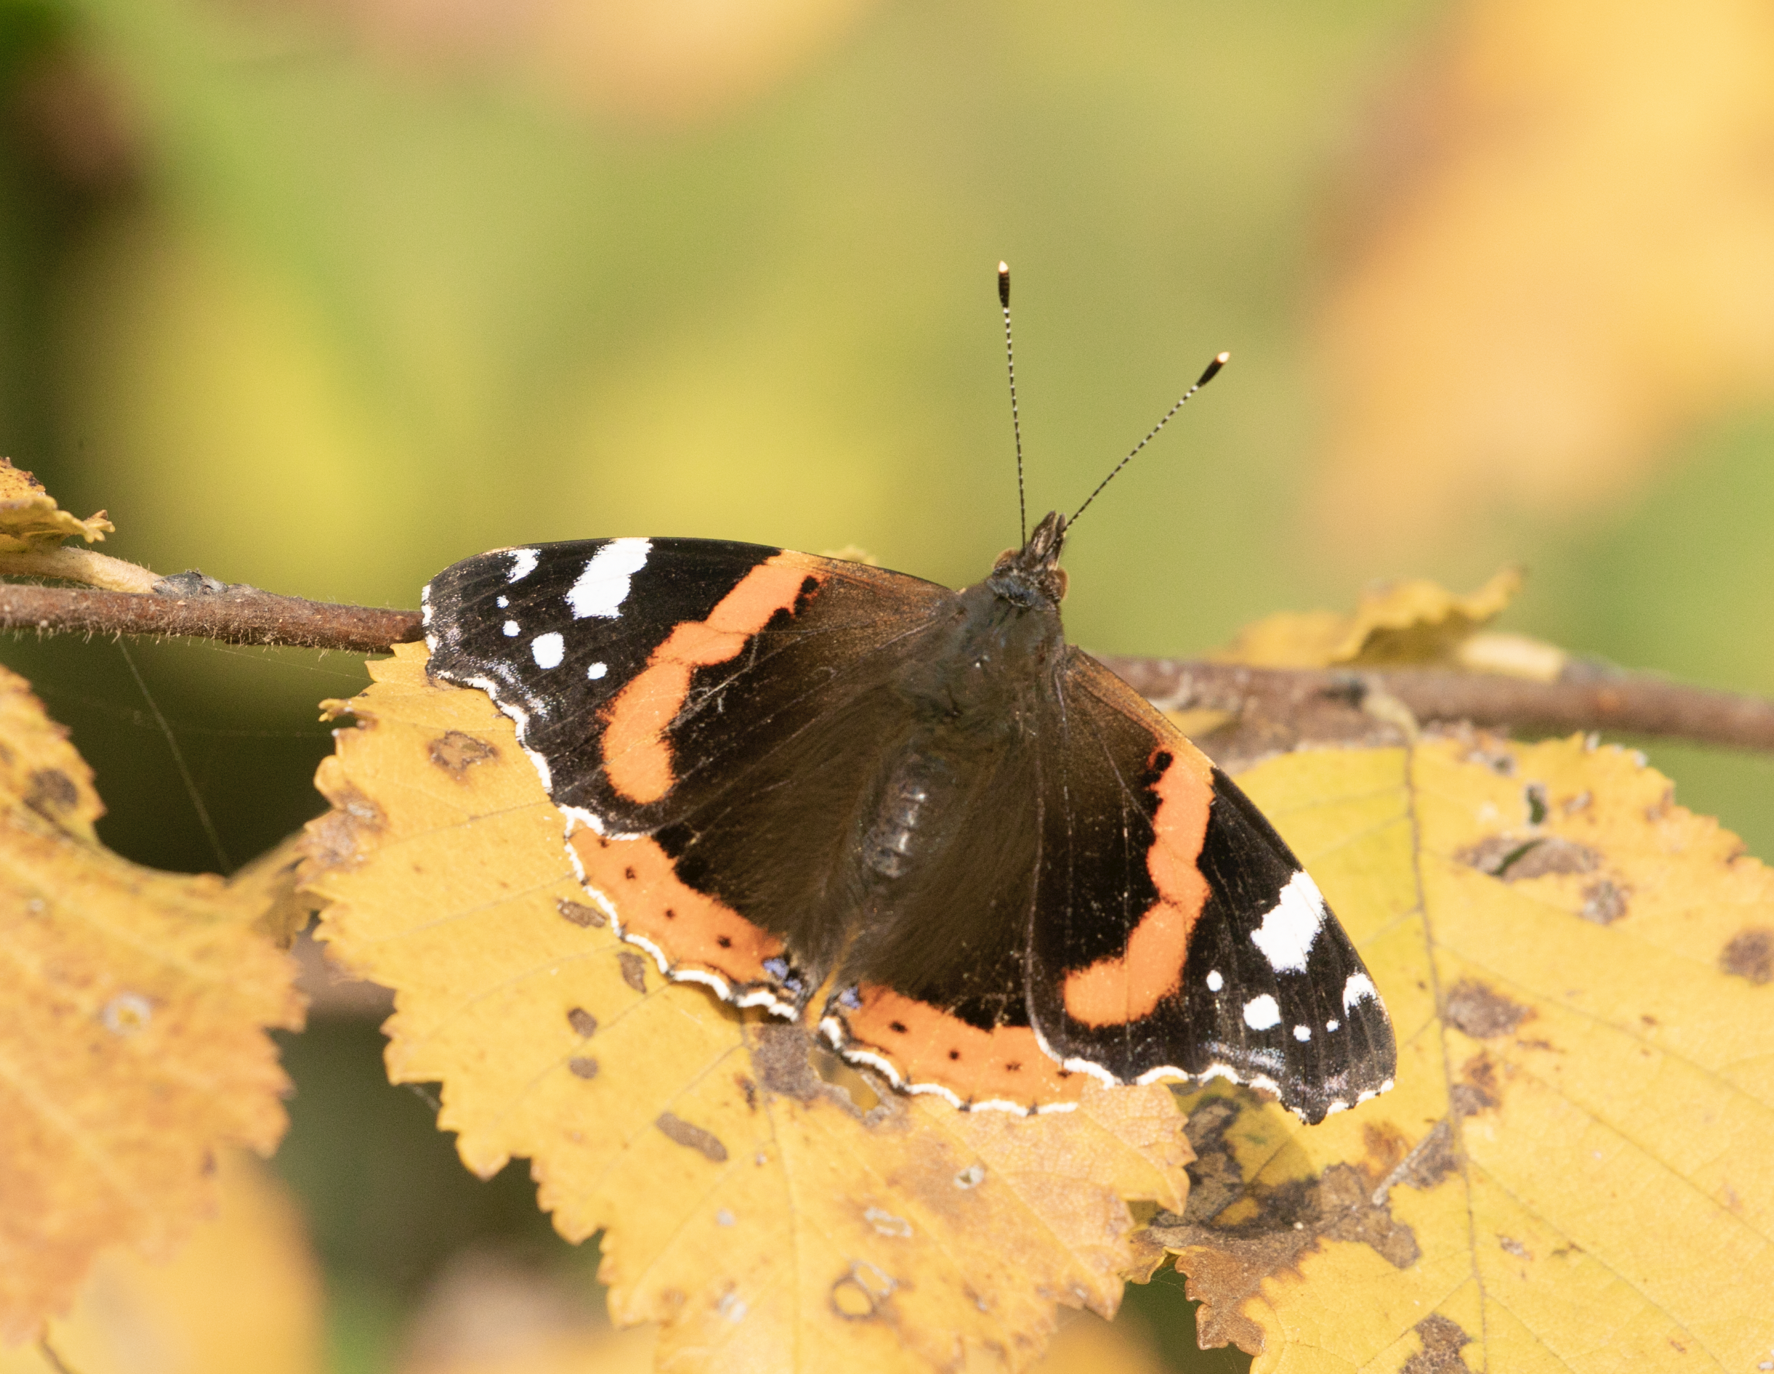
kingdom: Animalia
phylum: Arthropoda
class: Insecta
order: Lepidoptera
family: Nymphalidae
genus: Vanessa
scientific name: Vanessa atalanta
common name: Red admiral
